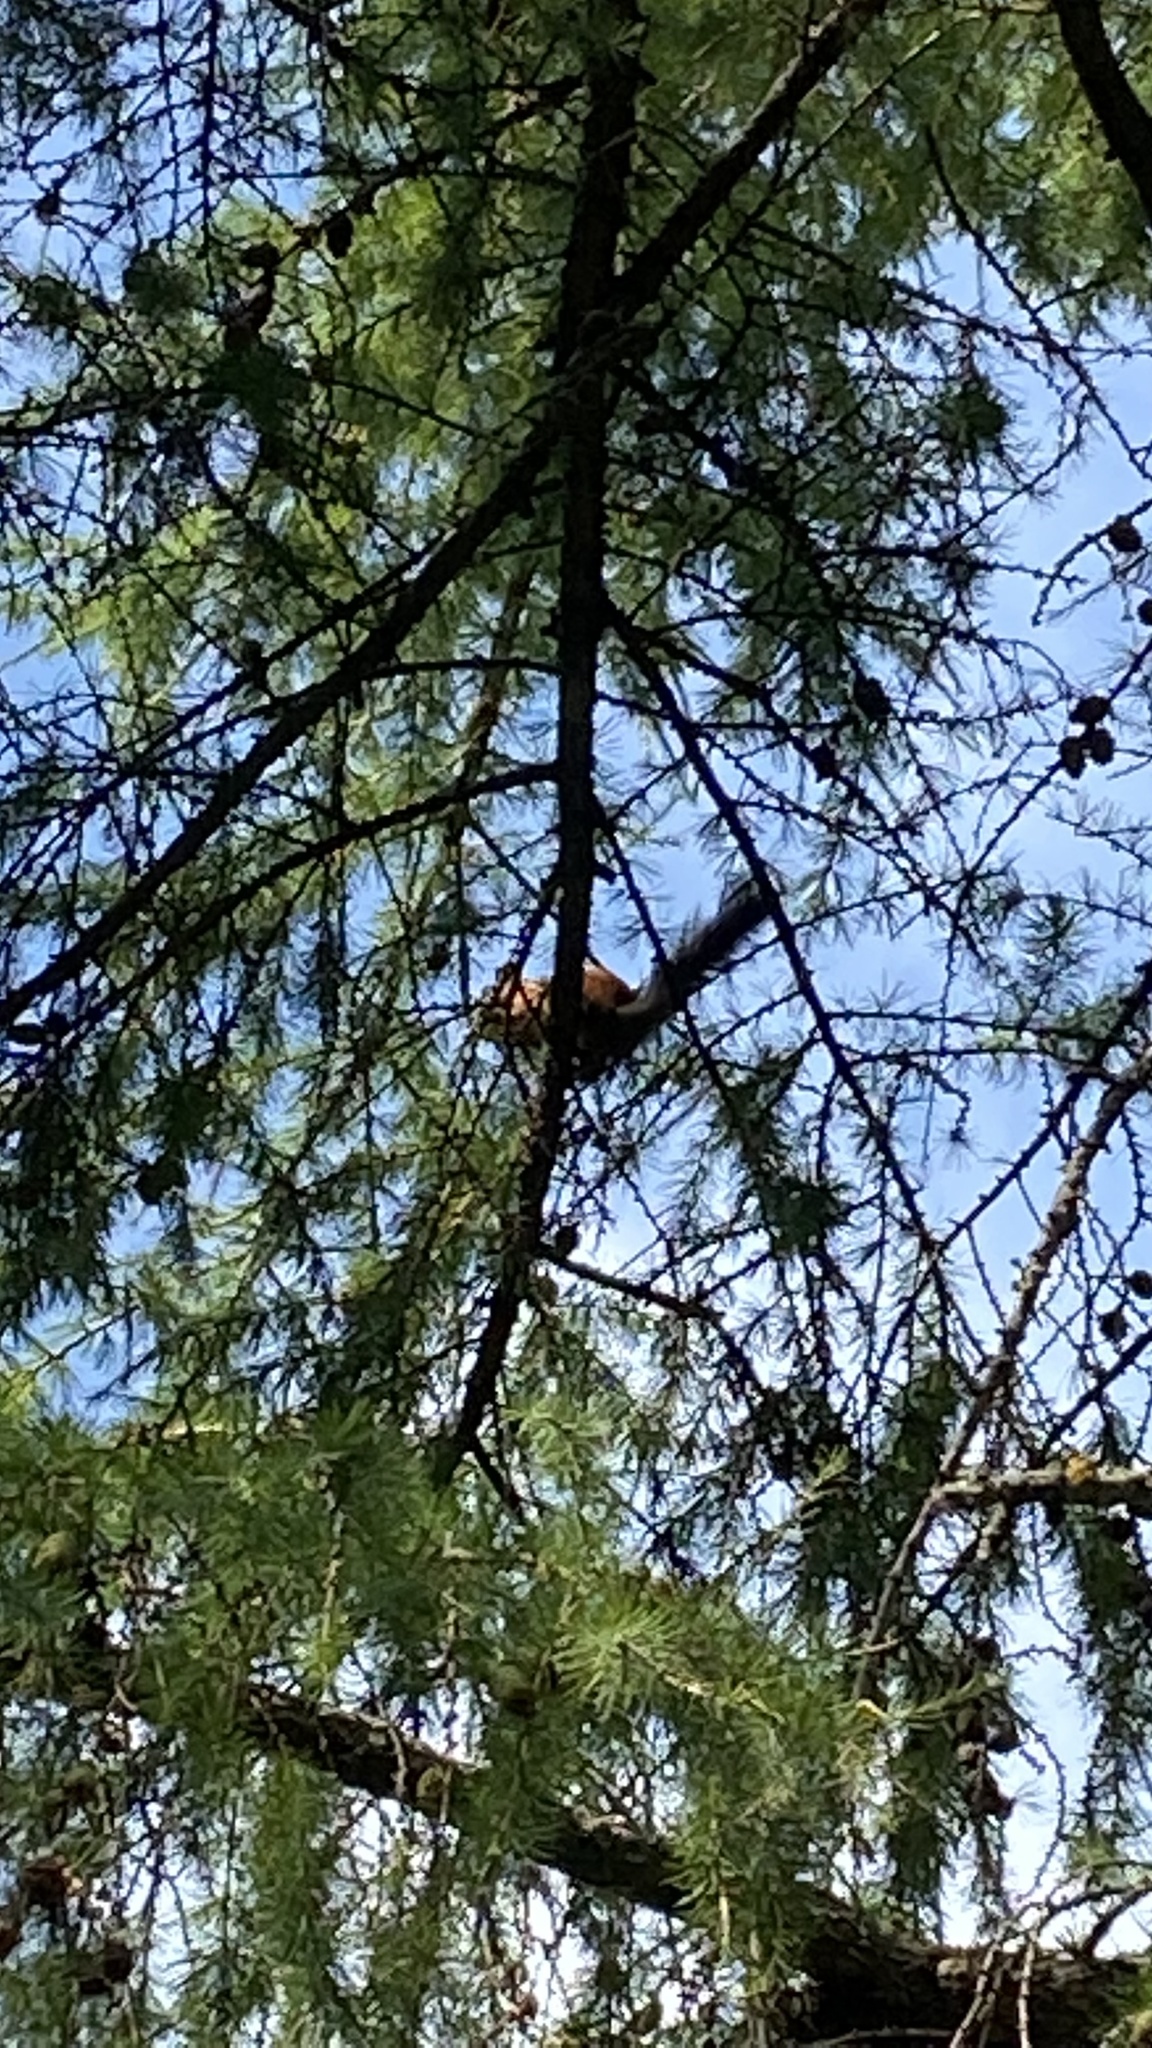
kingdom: Animalia
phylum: Chordata
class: Mammalia
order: Rodentia
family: Sciuridae
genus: Sciurus
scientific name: Sciurus vulgaris
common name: Eurasian red squirrel
